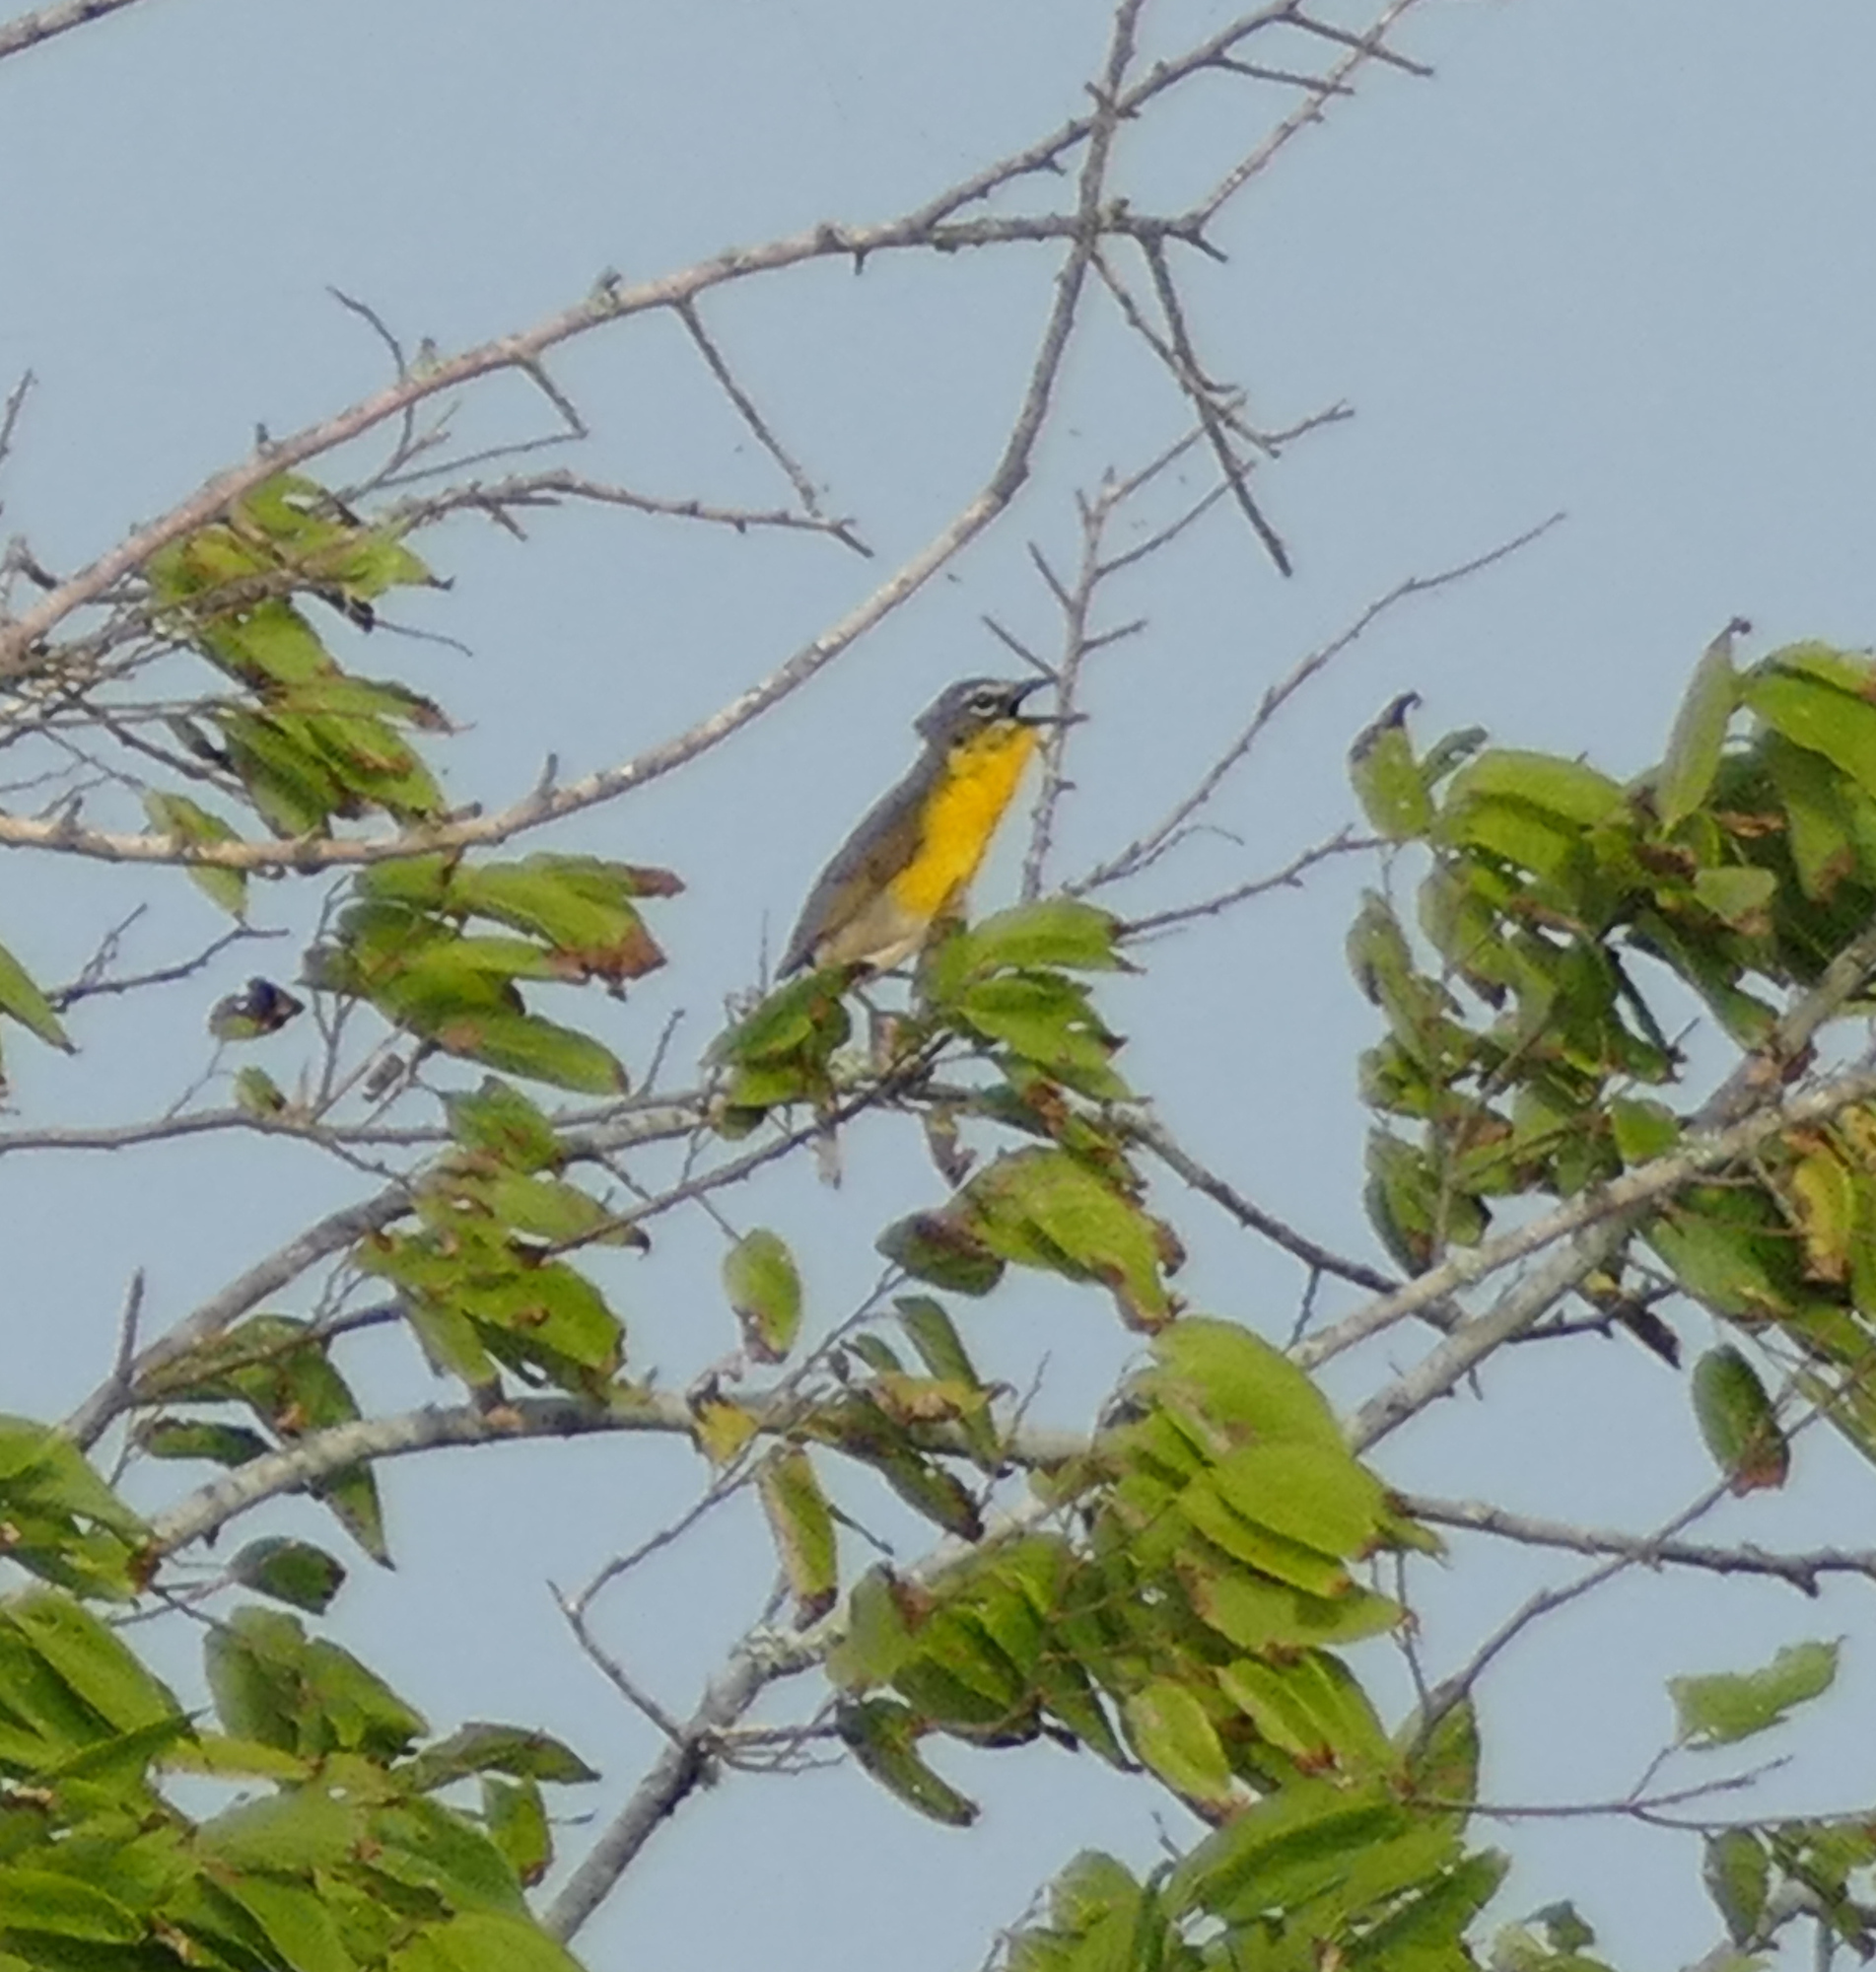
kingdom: Animalia
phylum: Chordata
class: Aves
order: Passeriformes
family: Parulidae
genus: Icteria
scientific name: Icteria virens
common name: Yellow-breasted chat
